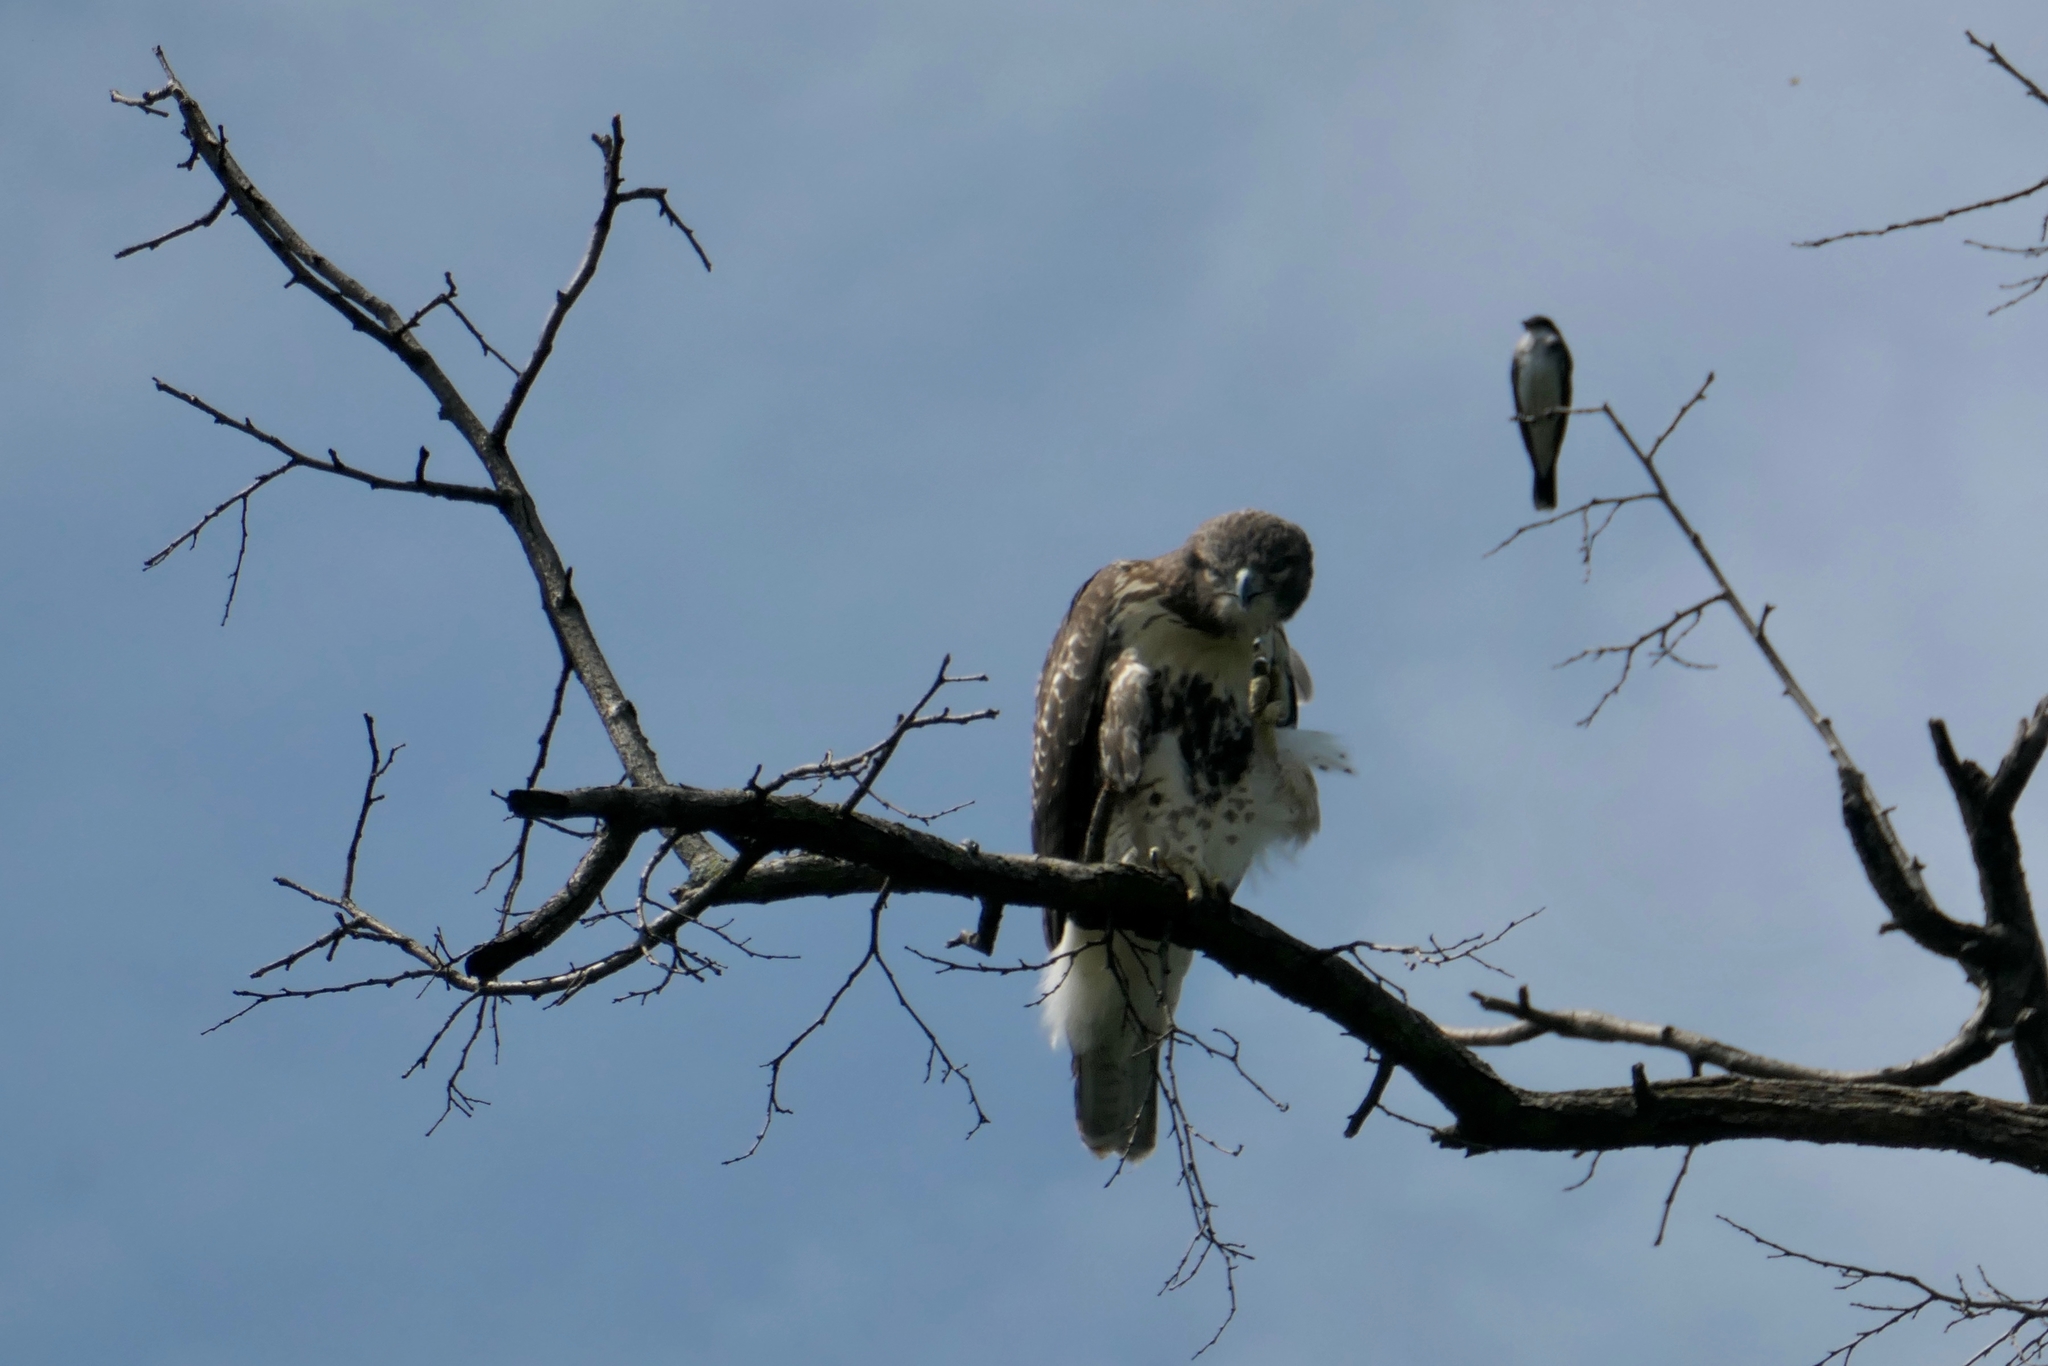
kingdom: Animalia
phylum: Chordata
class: Aves
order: Accipitriformes
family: Accipitridae
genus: Buteo
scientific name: Buteo jamaicensis
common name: Red-tailed hawk
